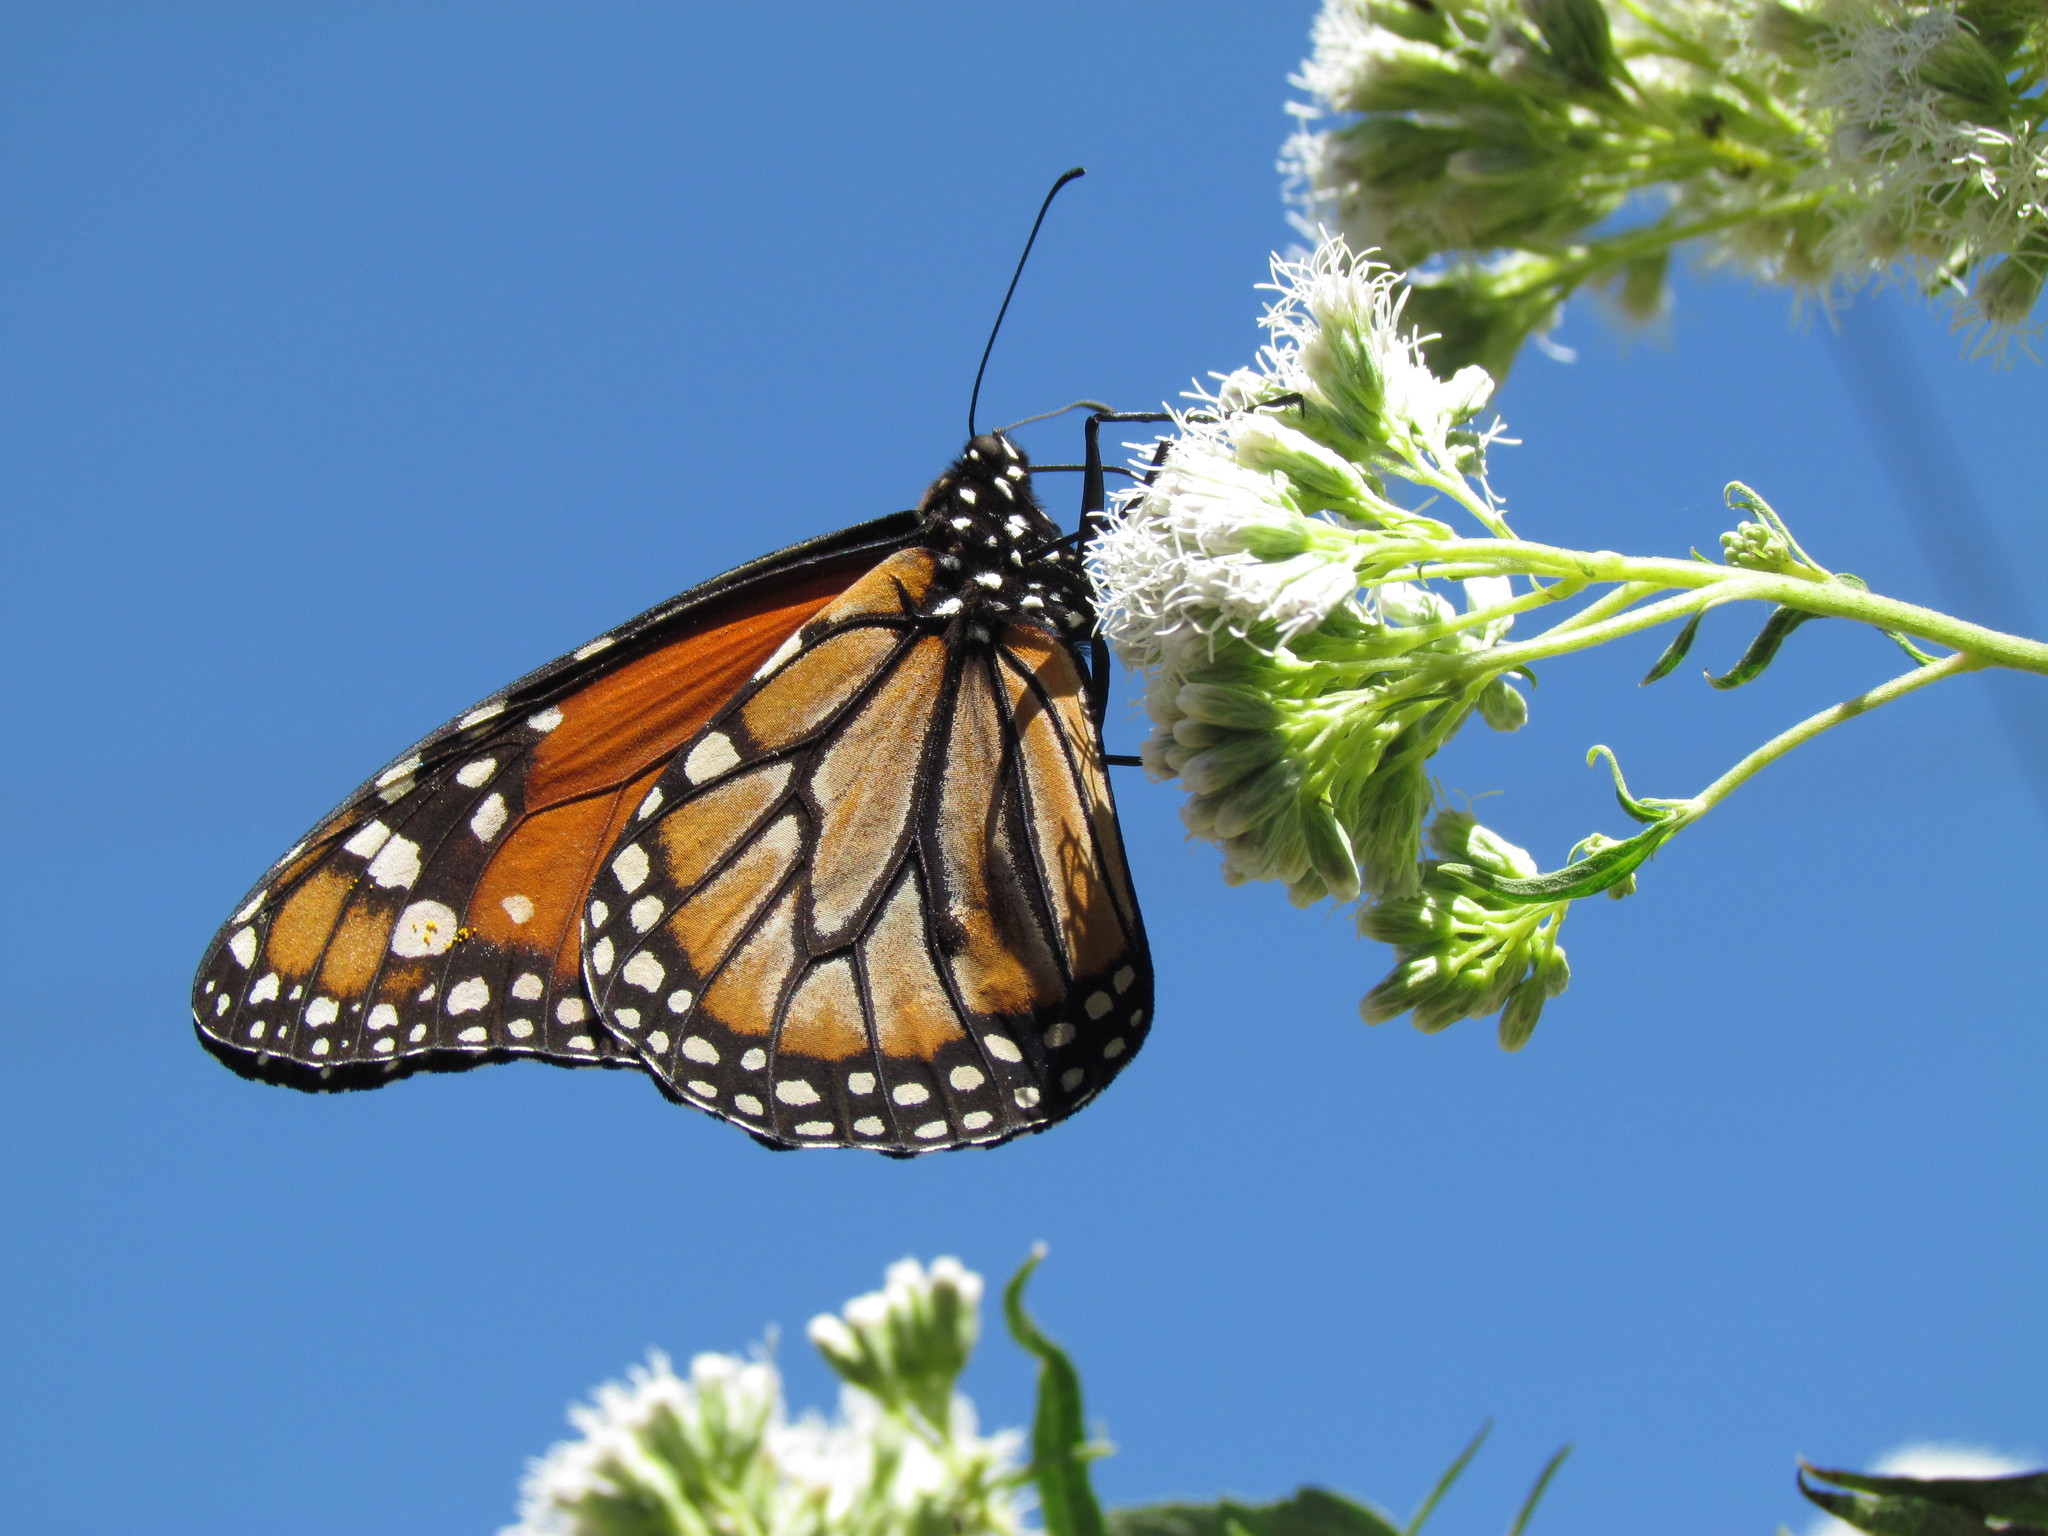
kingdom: Animalia
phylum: Arthropoda
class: Insecta
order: Lepidoptera
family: Nymphalidae
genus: Danaus
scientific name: Danaus erippus
